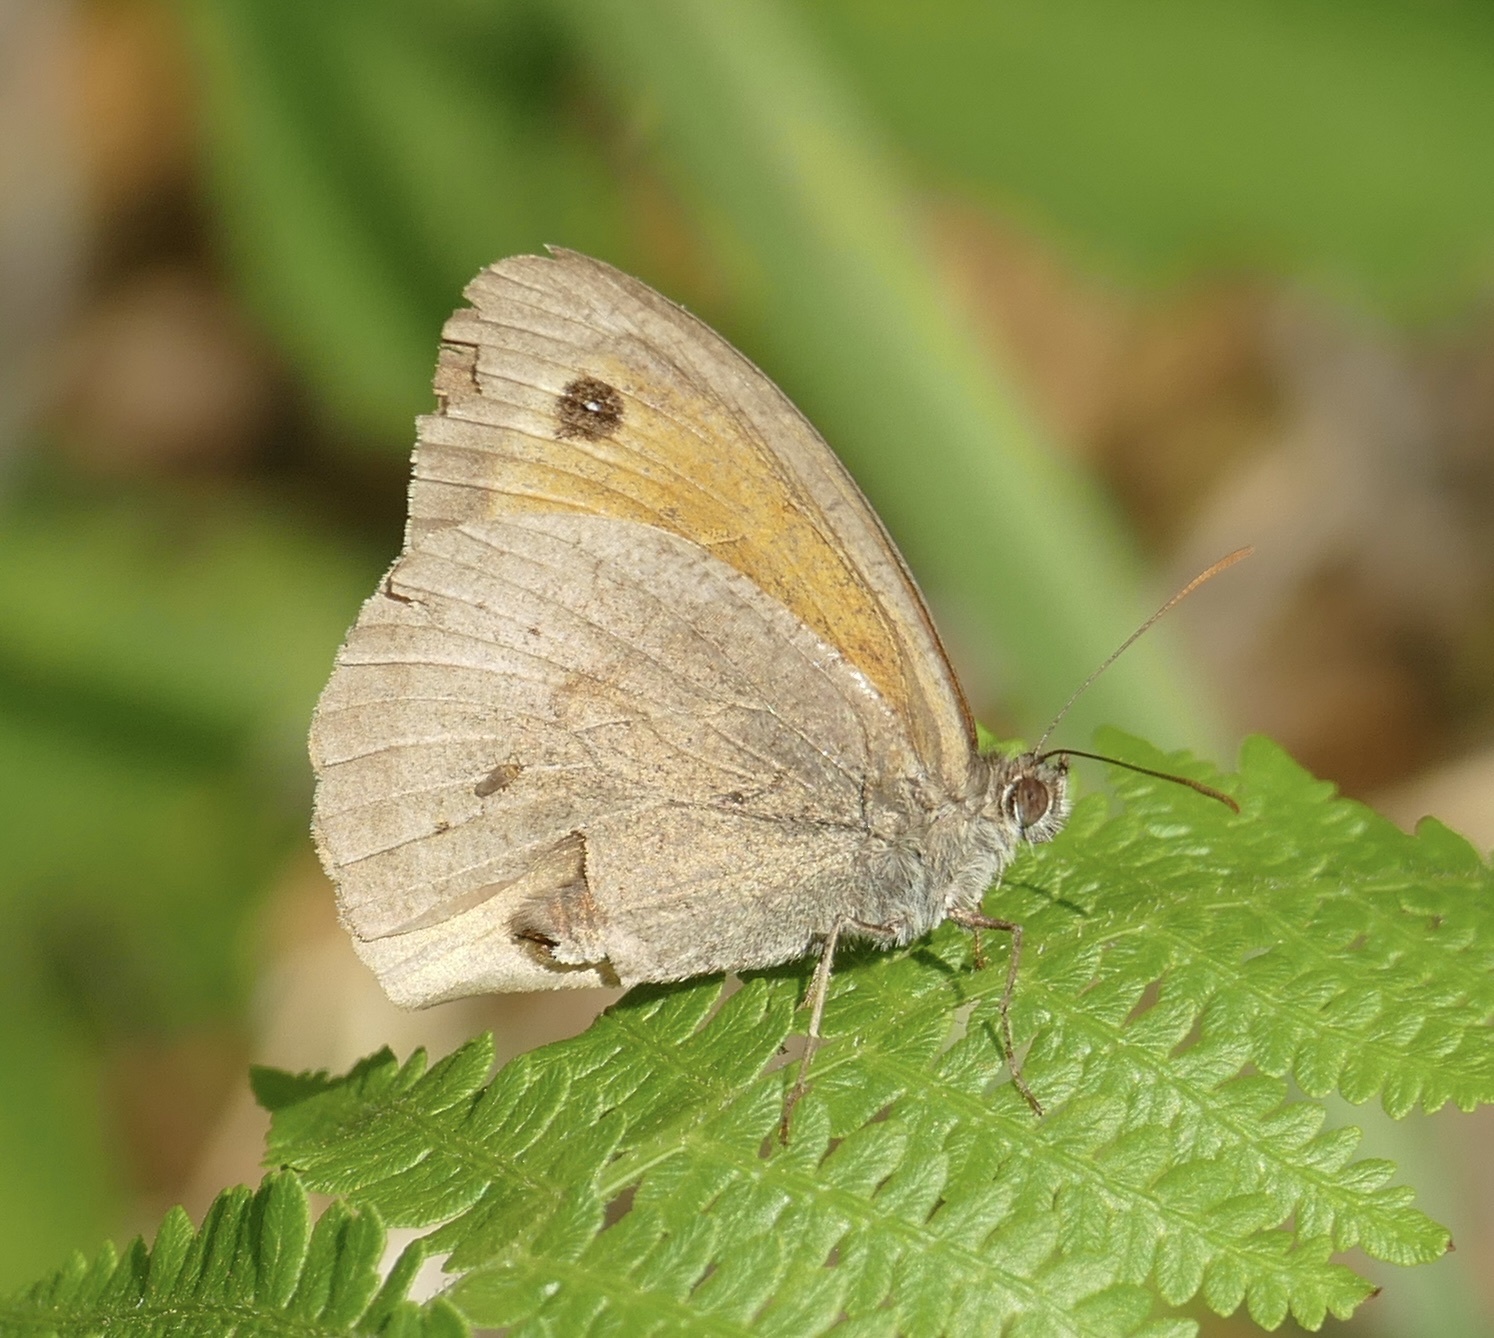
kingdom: Animalia
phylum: Arthropoda
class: Insecta
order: Lepidoptera
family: Nymphalidae
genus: Maniola
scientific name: Maniola jurtina
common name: Meadow brown
